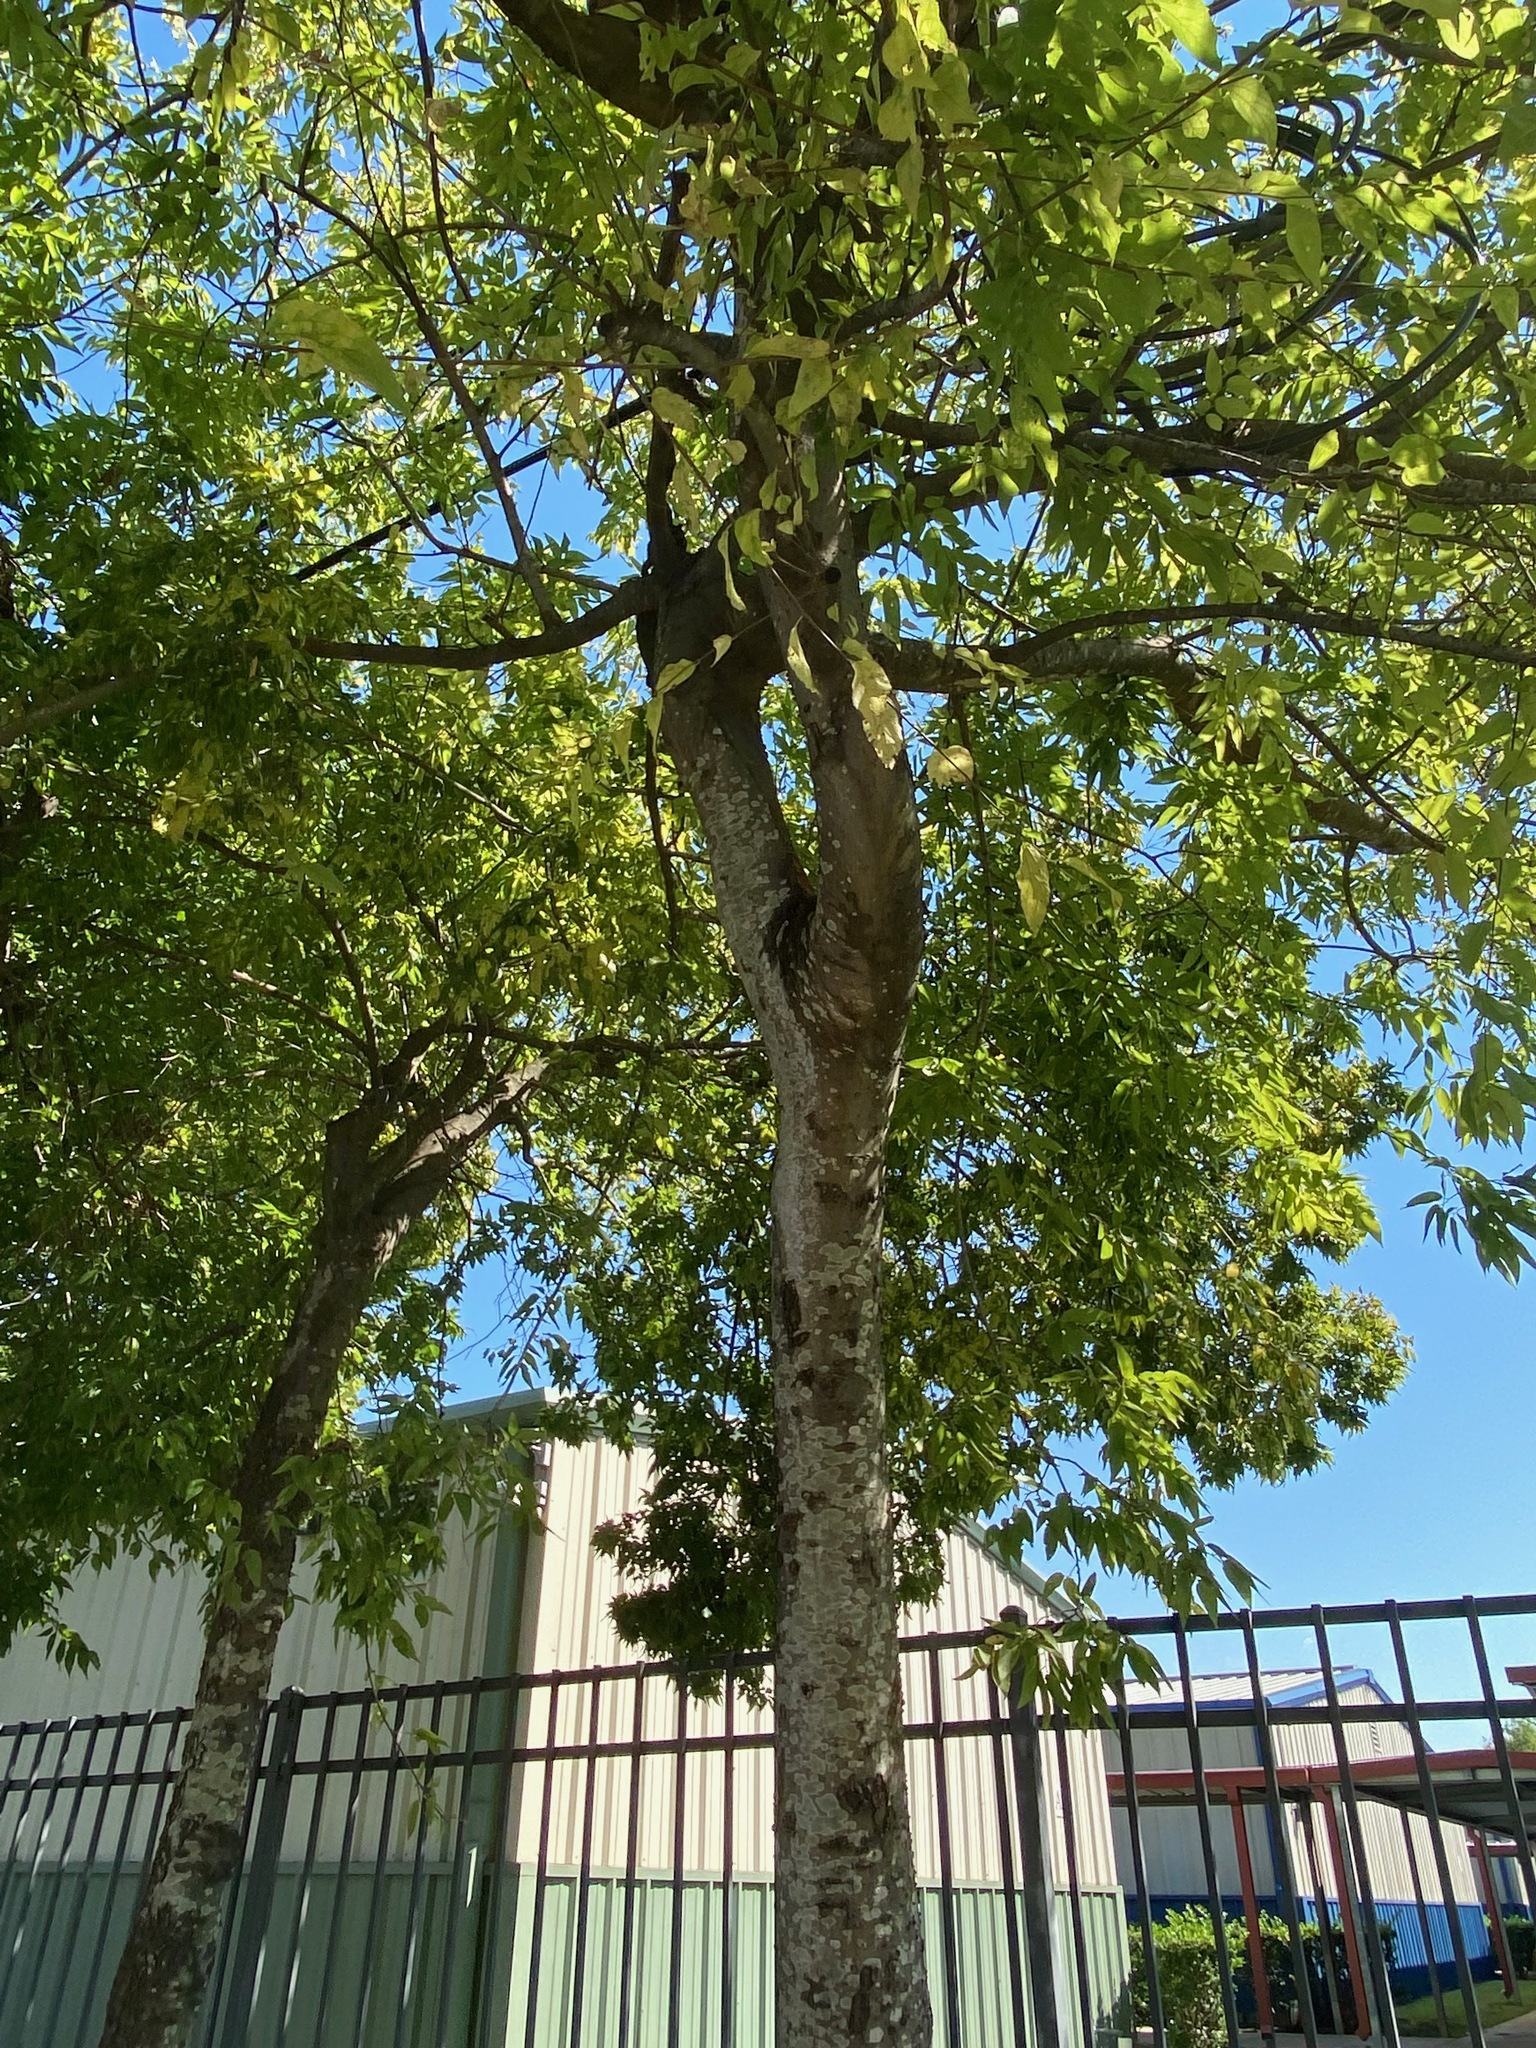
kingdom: Plantae
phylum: Tracheophyta
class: Magnoliopsida
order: Rosales
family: Cannabaceae
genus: Celtis
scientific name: Celtis laevigata
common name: Sugarberry
